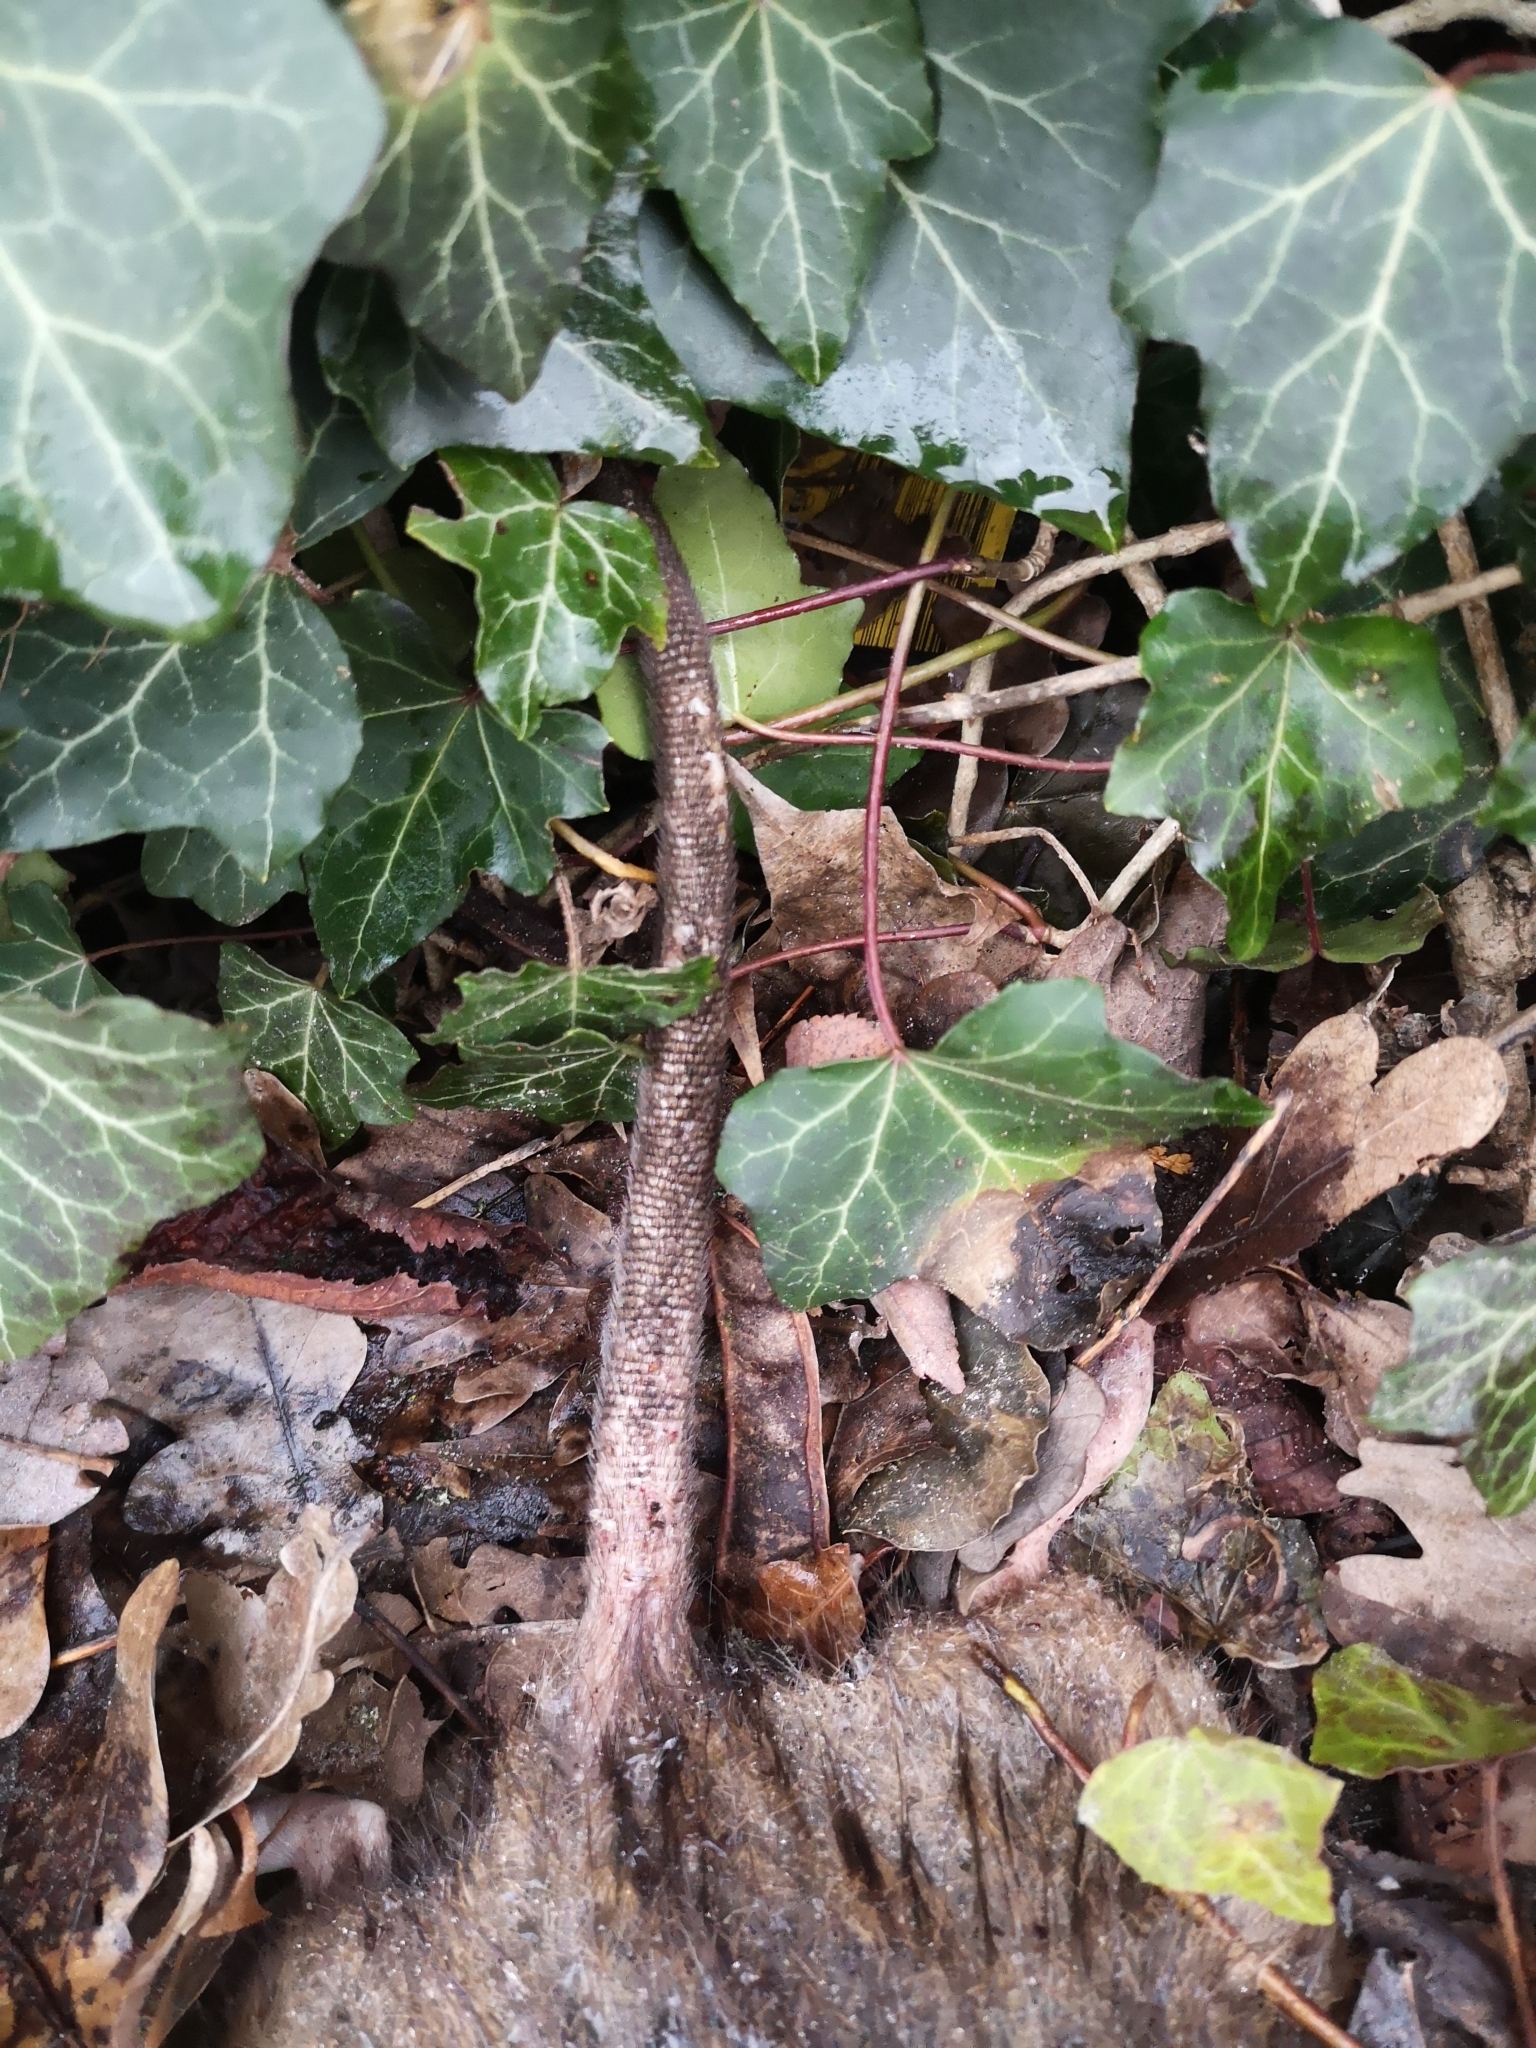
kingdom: Animalia
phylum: Chordata
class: Mammalia
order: Rodentia
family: Muridae
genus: Rattus
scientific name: Rattus norvegicus
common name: Brown rat
